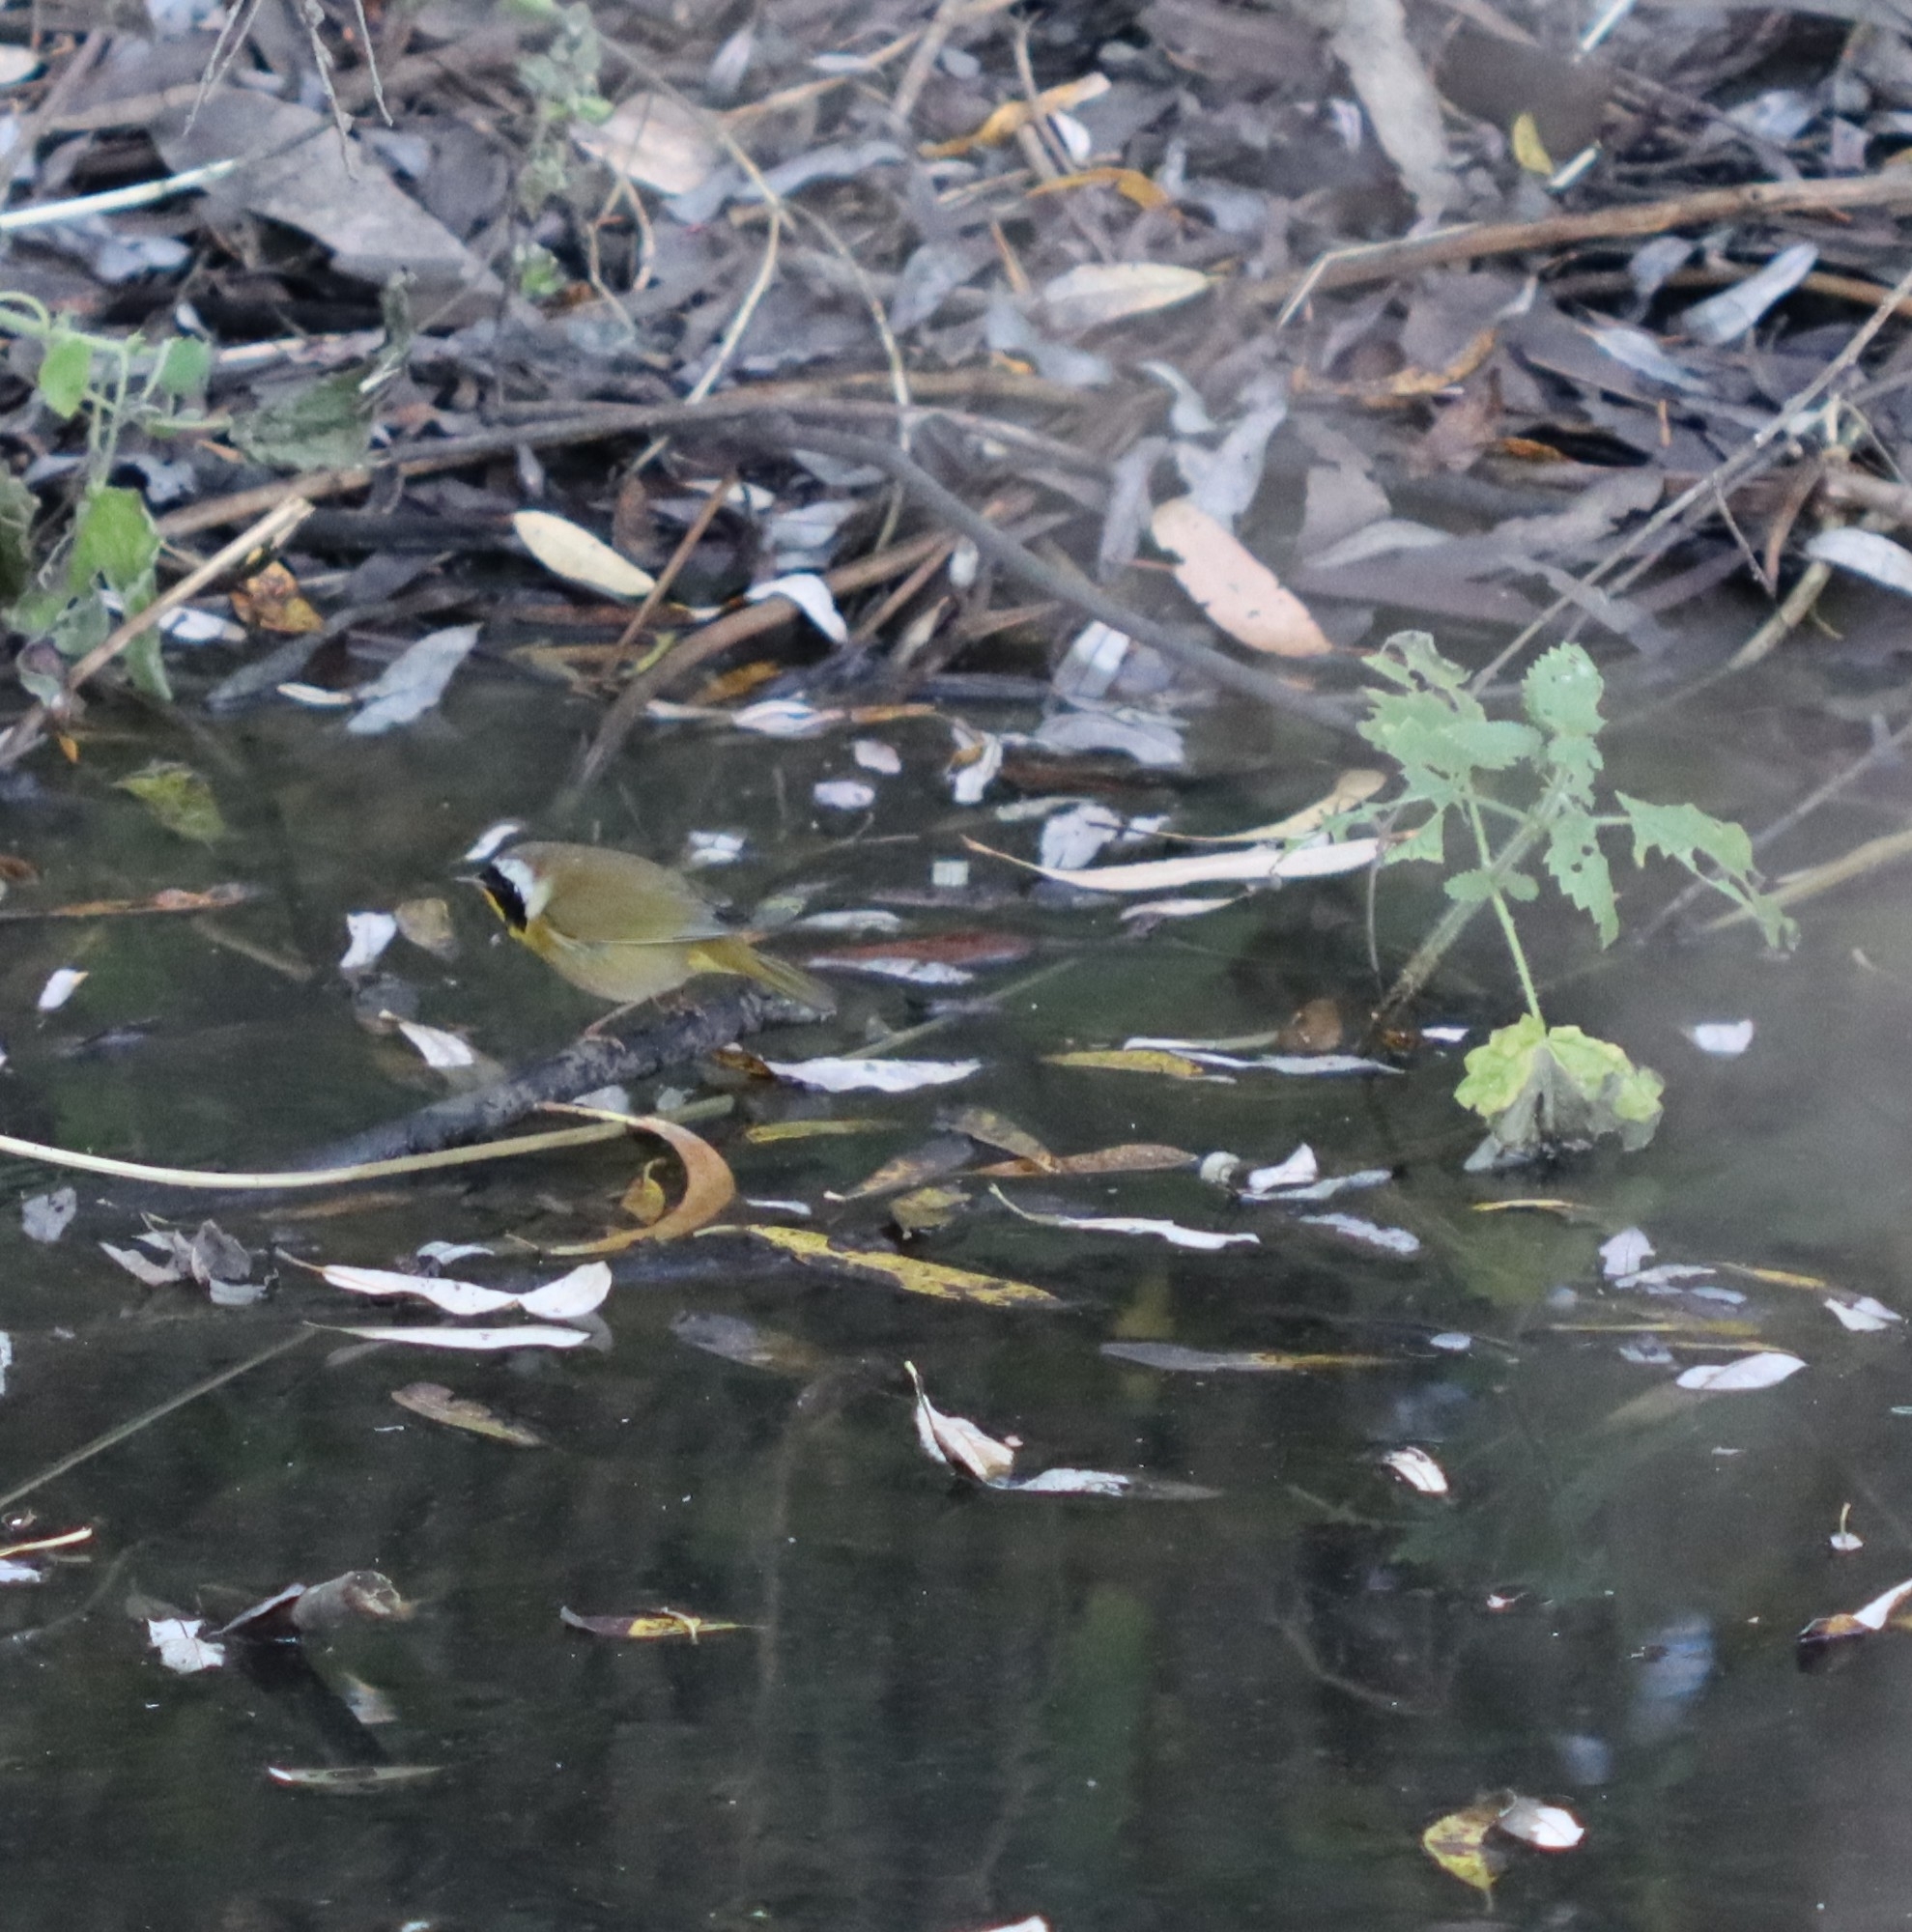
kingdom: Animalia
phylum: Chordata
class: Aves
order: Passeriformes
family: Parulidae
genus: Geothlypis
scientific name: Geothlypis trichas
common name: Common yellowthroat
